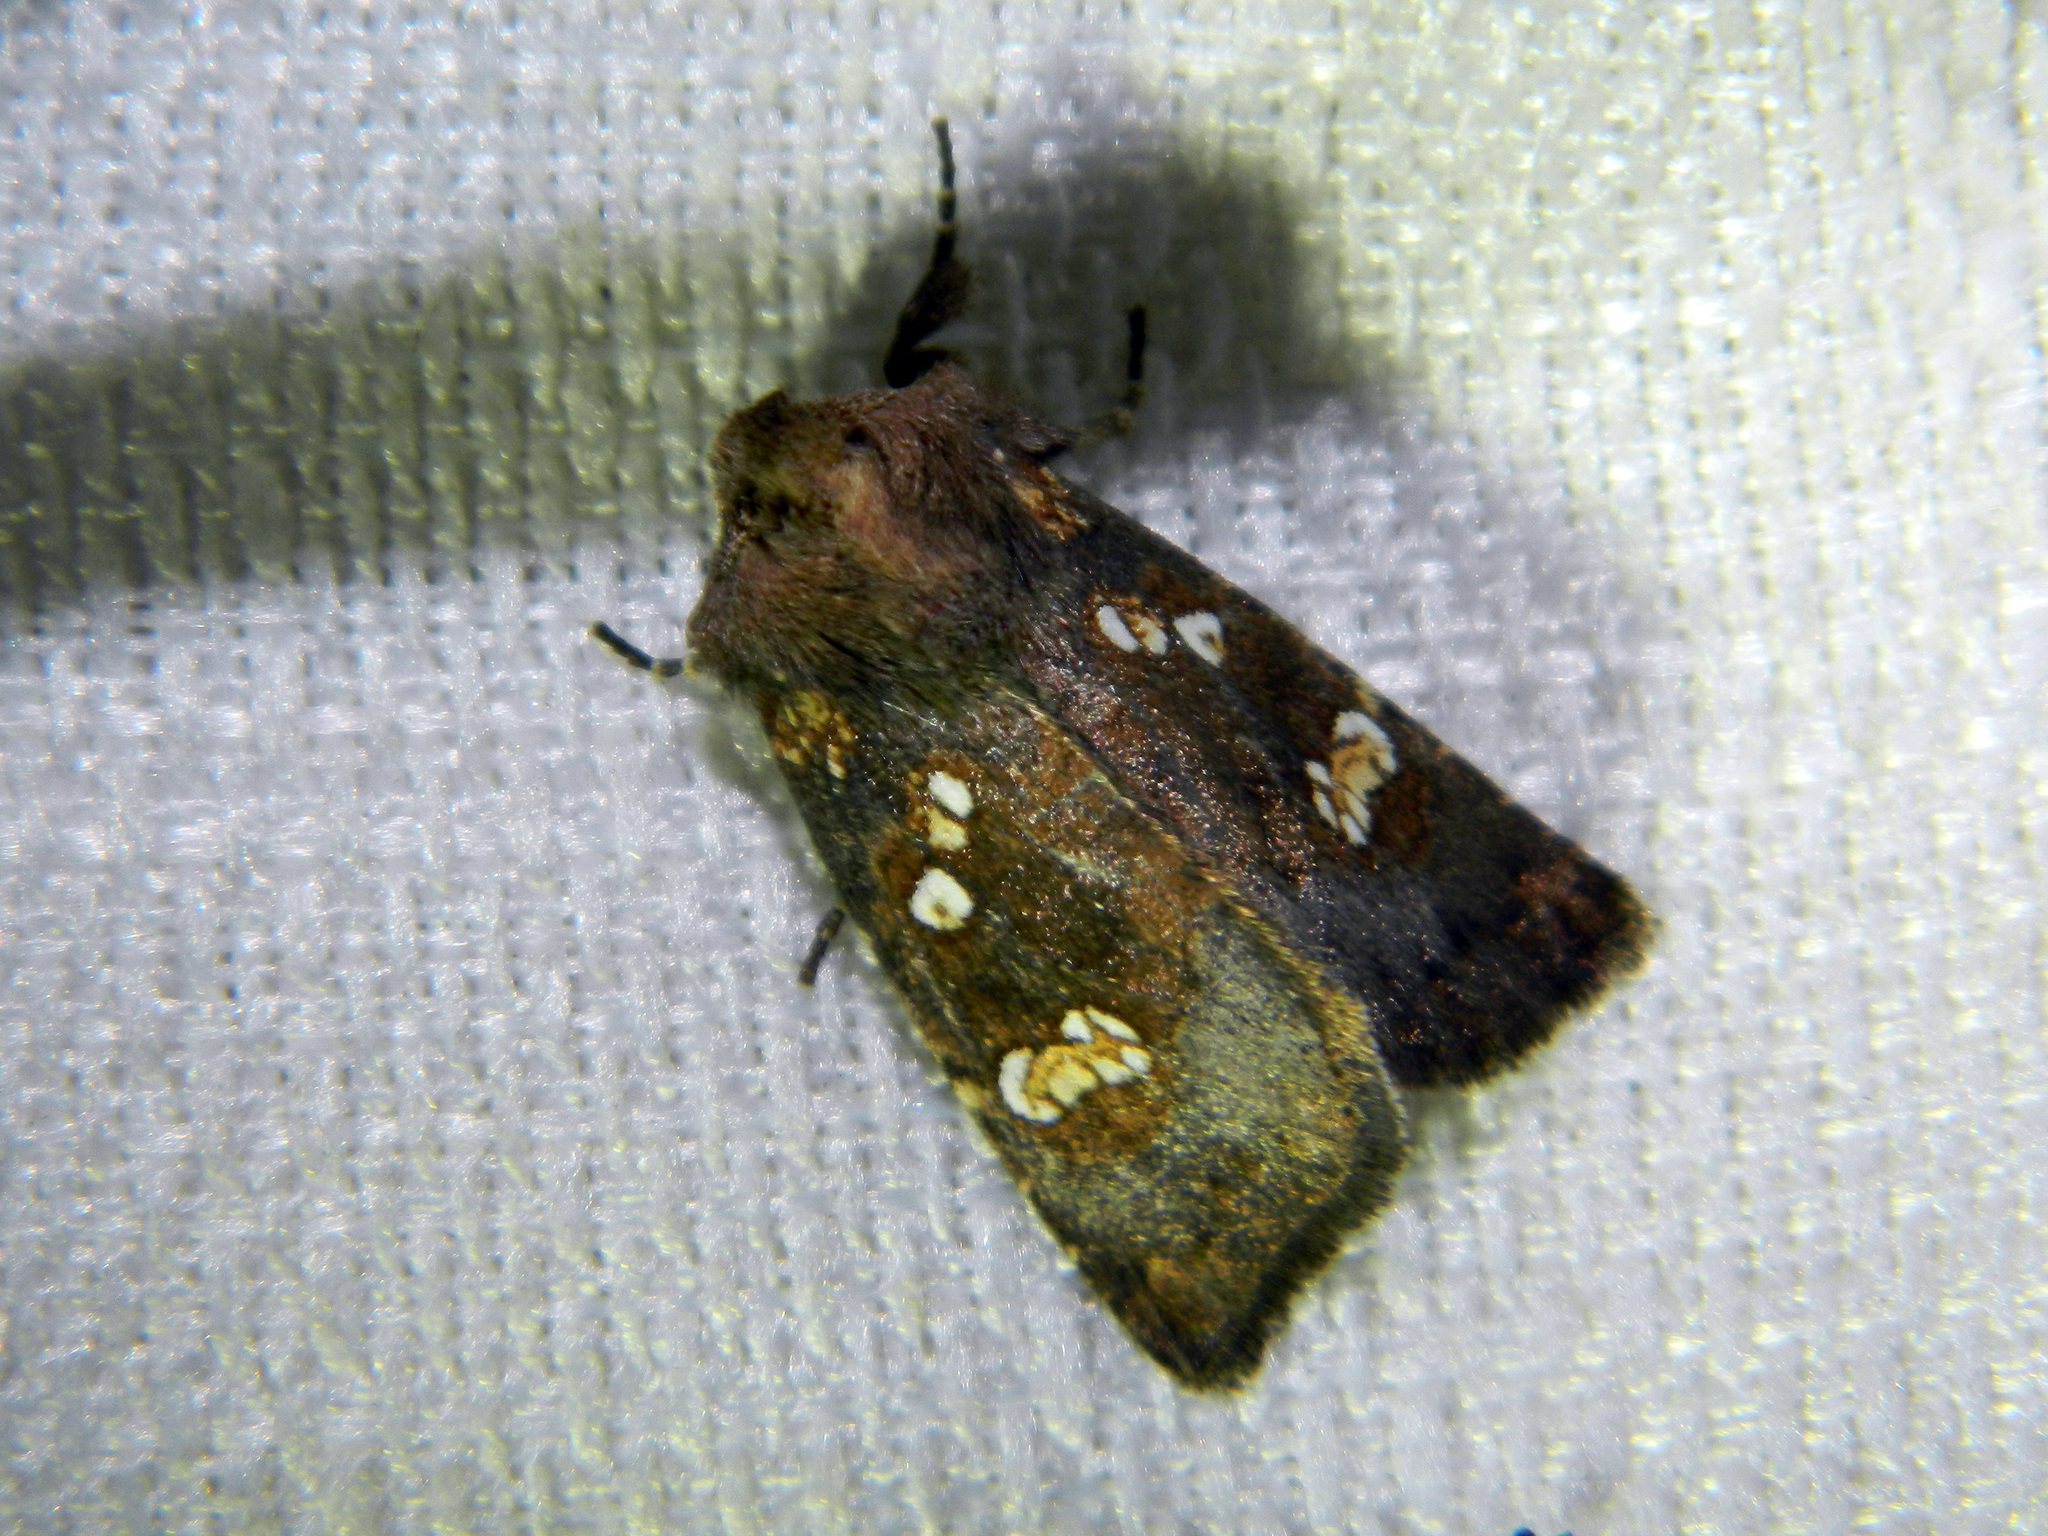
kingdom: Animalia
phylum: Arthropoda
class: Insecta
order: Lepidoptera
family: Noctuidae
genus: Papaipema
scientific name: Papaipema unimoda
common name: Meadow rue borer moth
